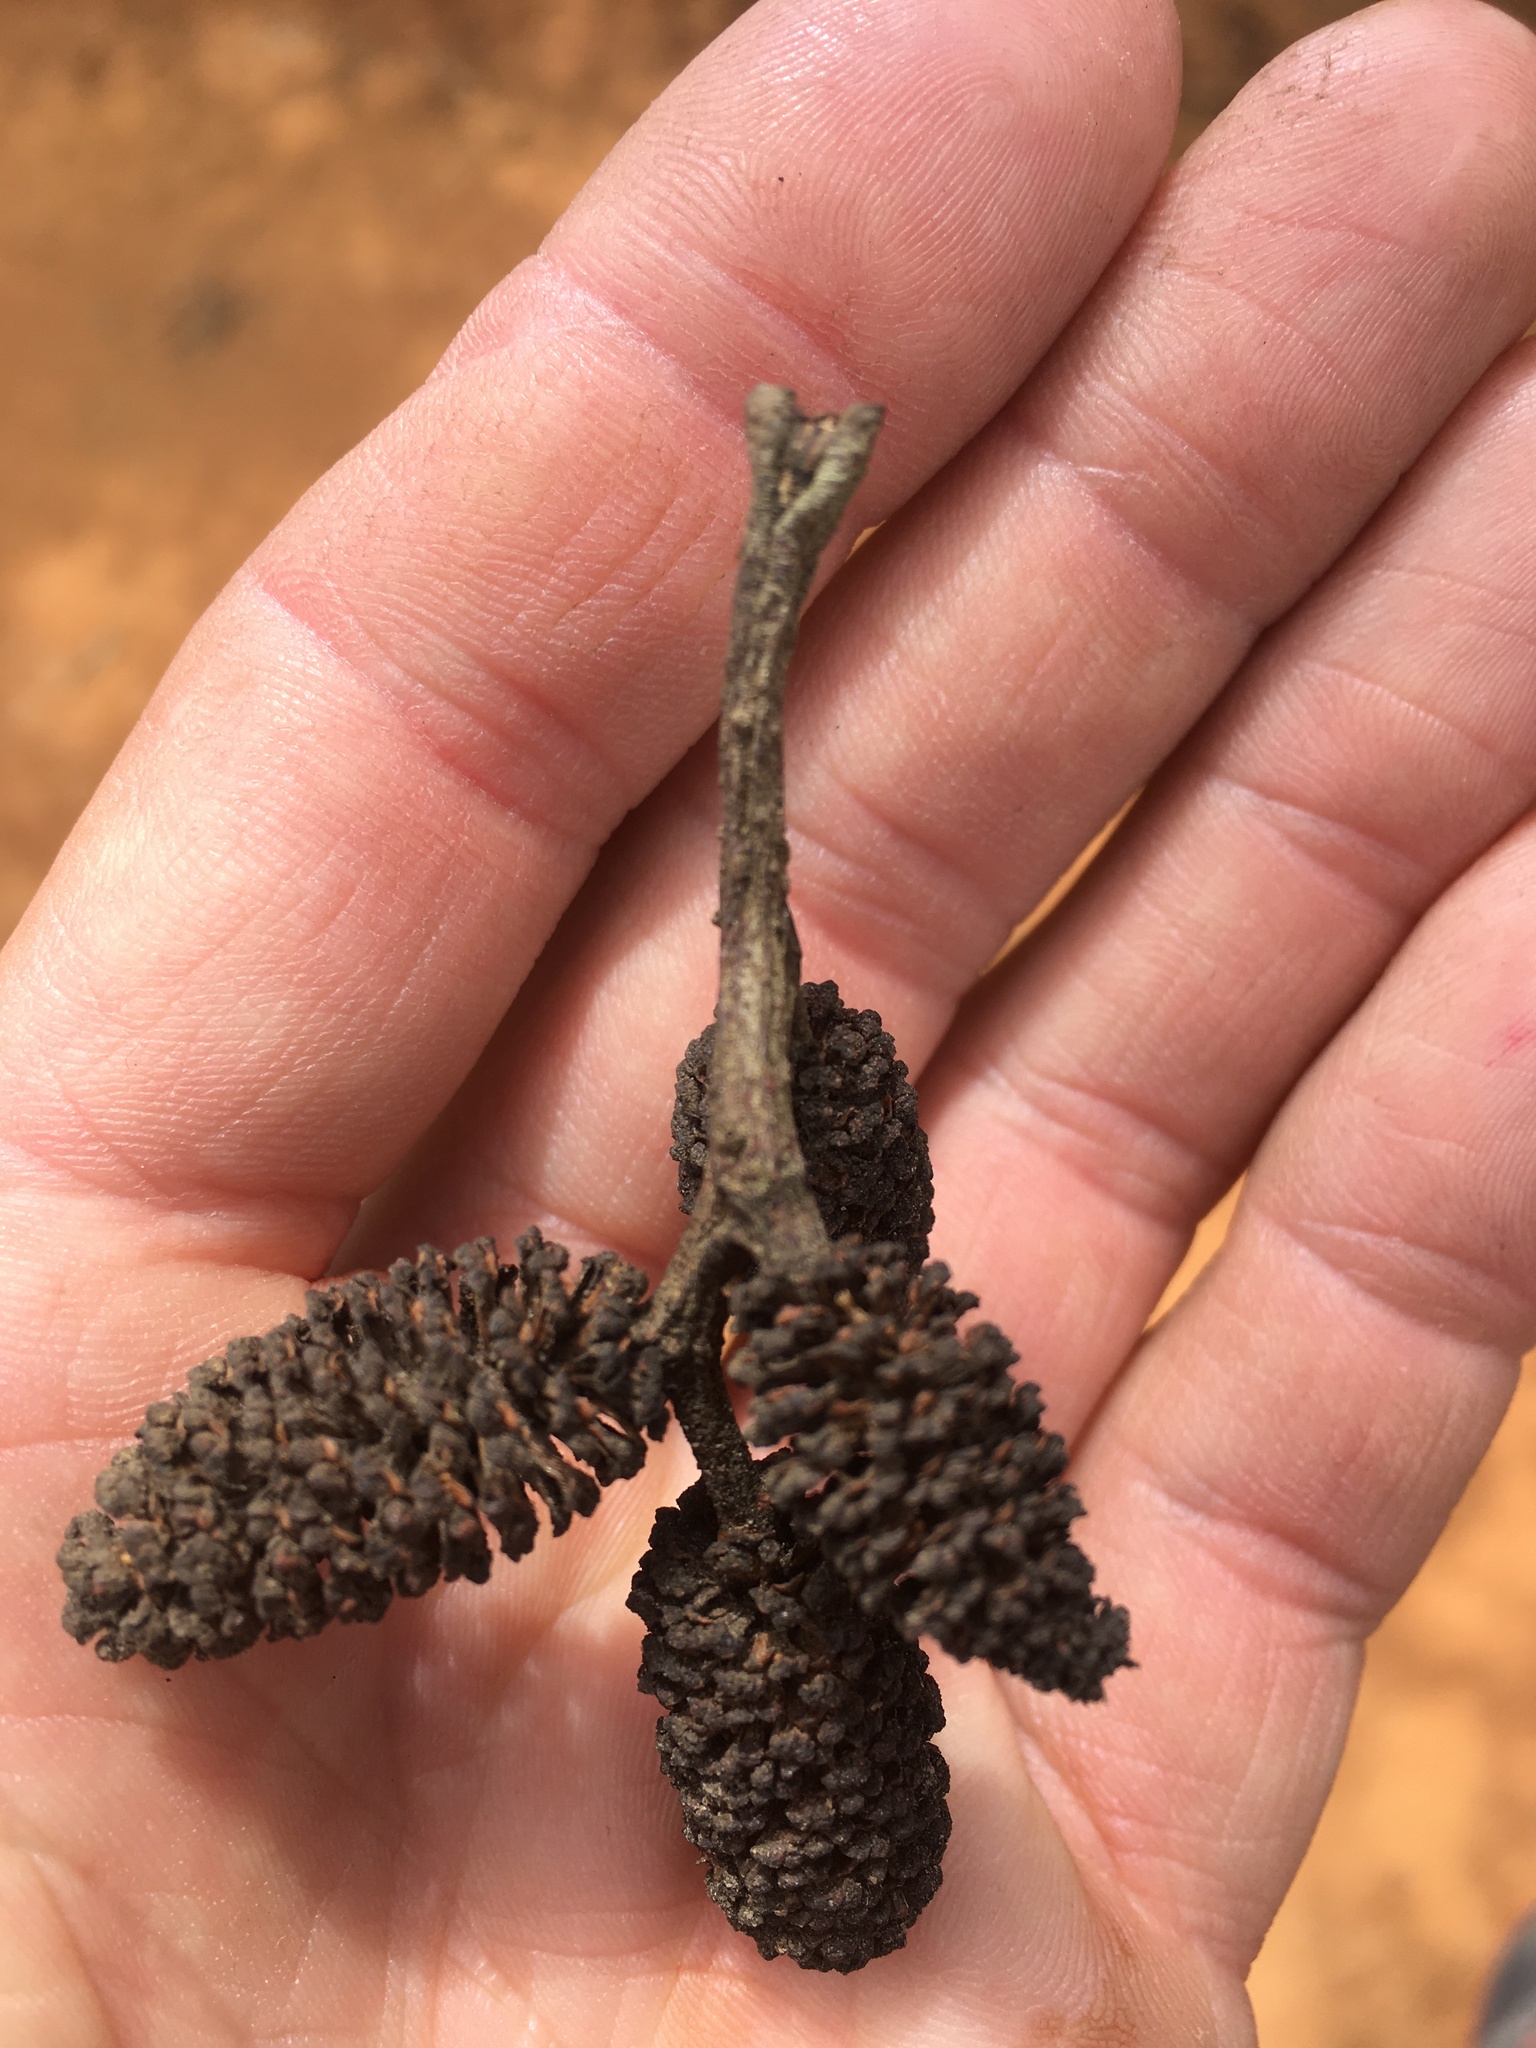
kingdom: Plantae
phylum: Tracheophyta
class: Magnoliopsida
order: Fagales
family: Betulaceae
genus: Alnus
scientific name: Alnus acuminata
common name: Alder
